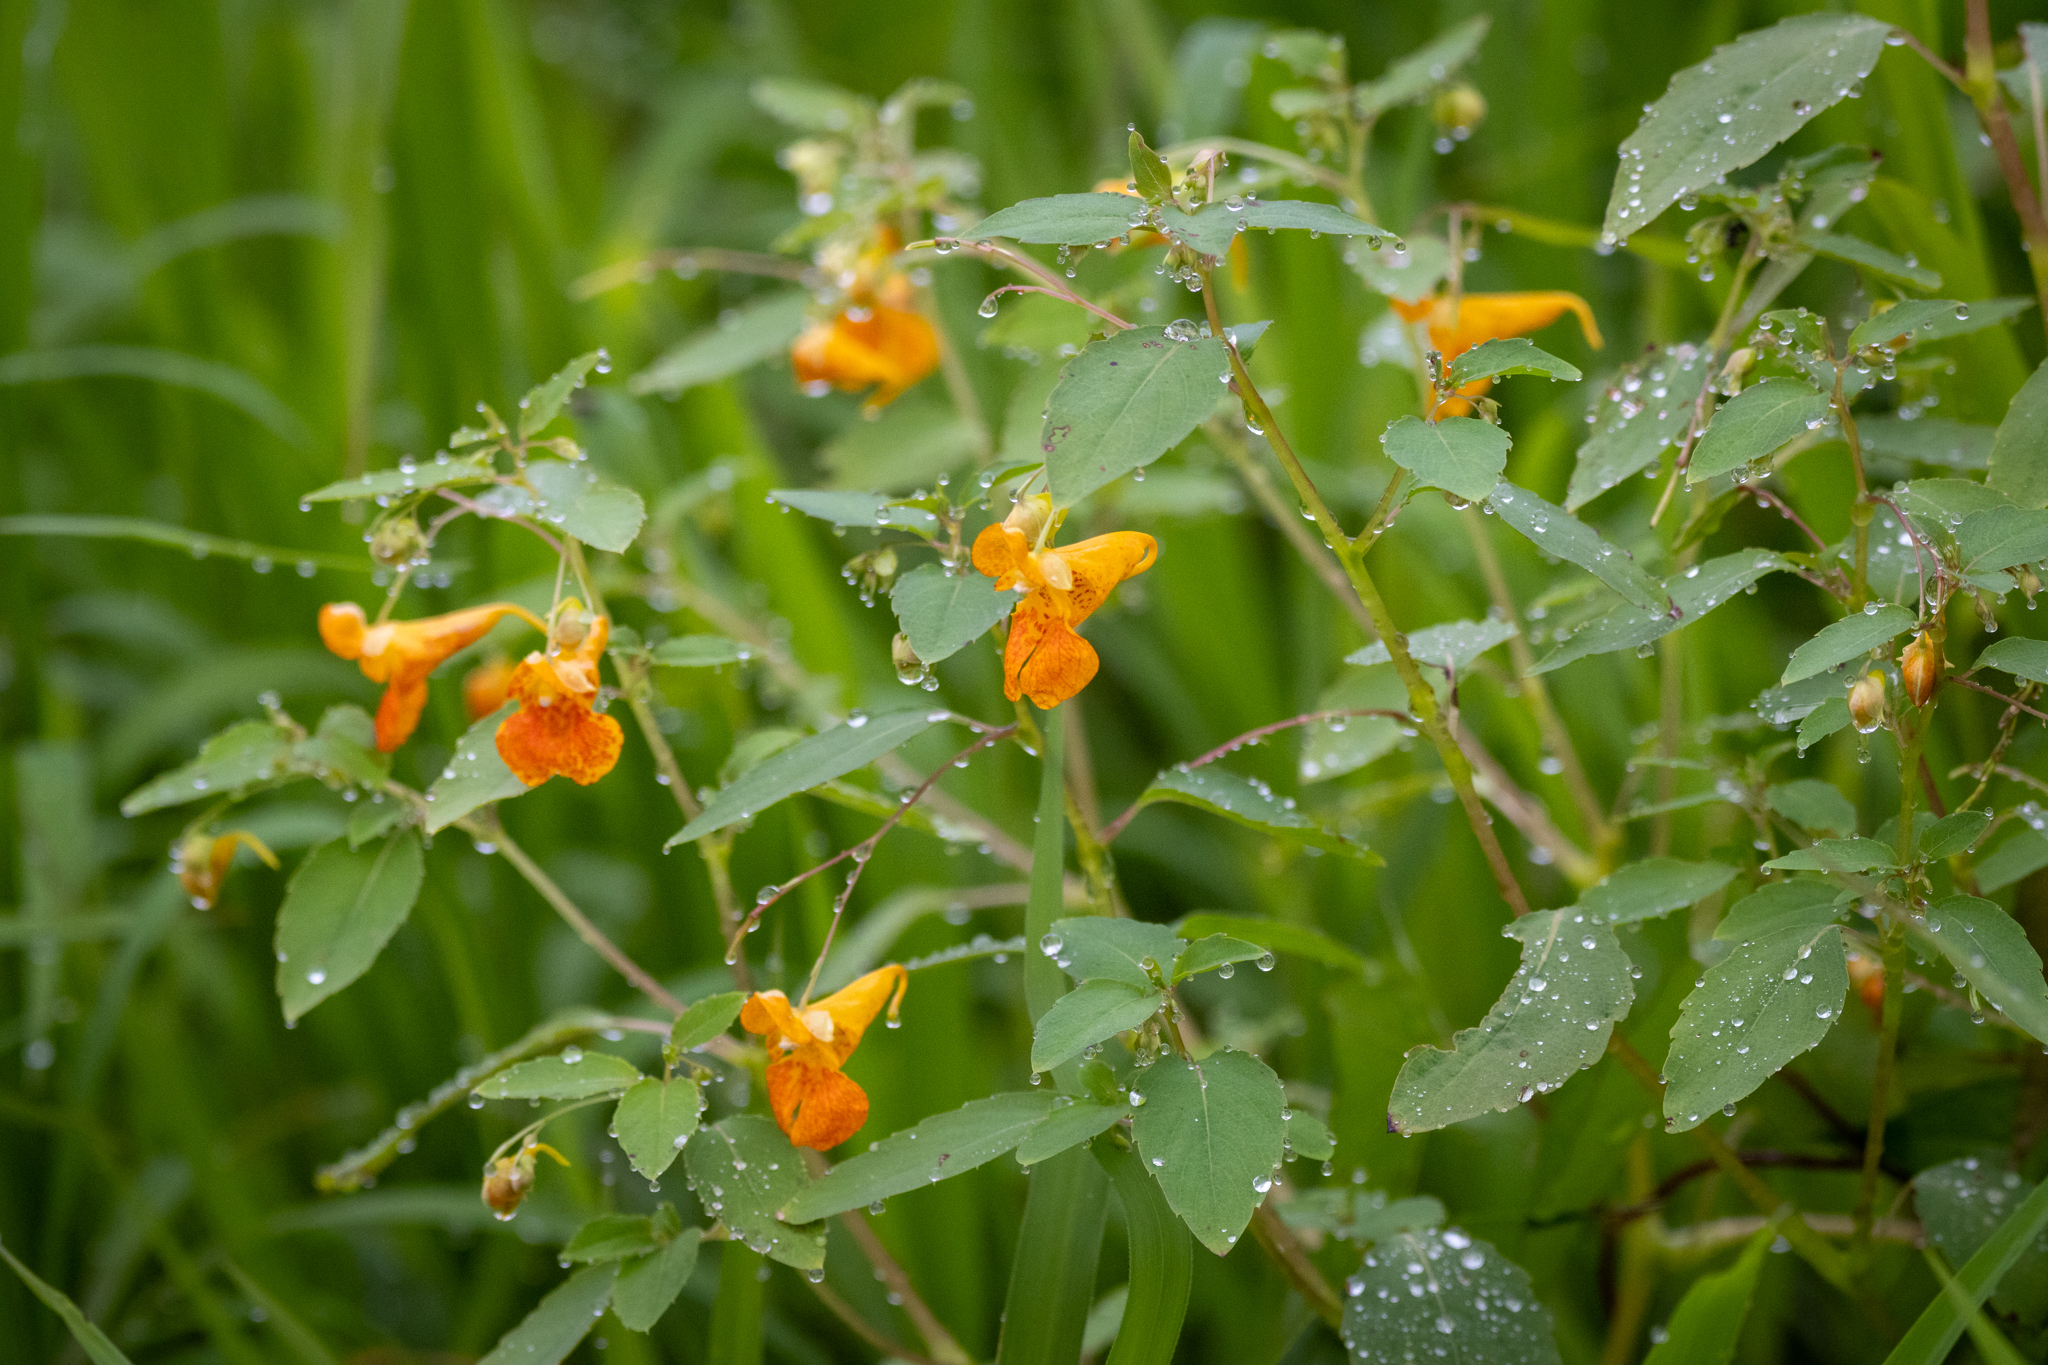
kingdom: Plantae
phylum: Tracheophyta
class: Magnoliopsida
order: Ericales
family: Balsaminaceae
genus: Impatiens
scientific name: Impatiens capensis
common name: Orange balsam
